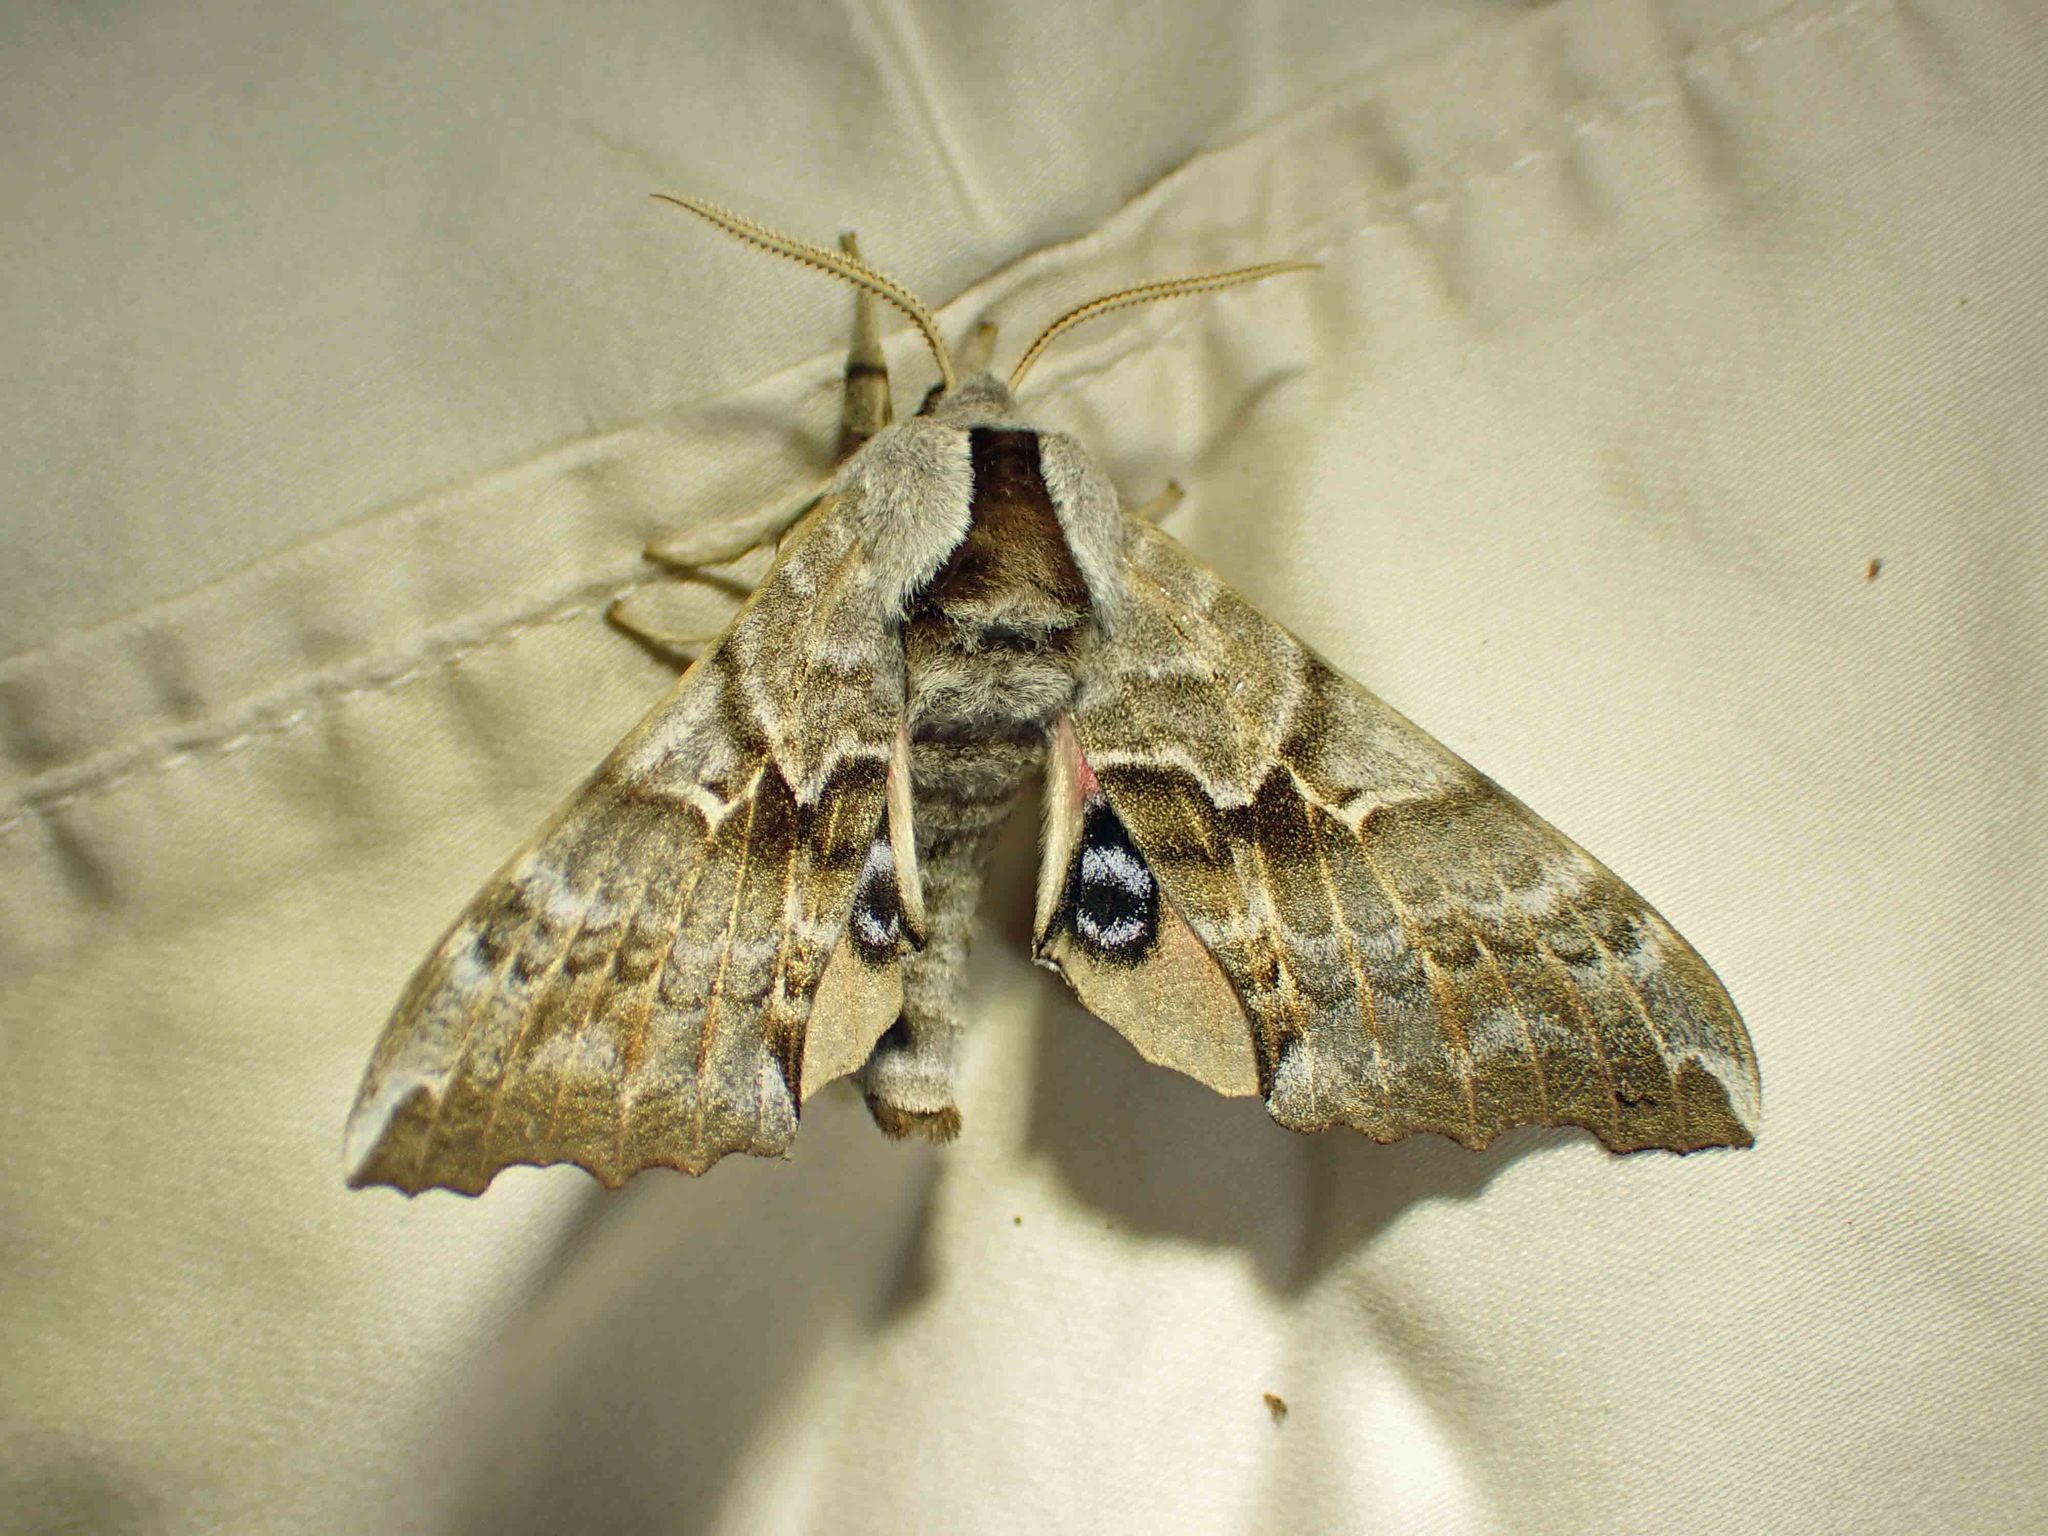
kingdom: Animalia
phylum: Arthropoda
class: Insecta
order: Lepidoptera
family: Sphingidae
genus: Smerinthus
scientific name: Smerinthus cerisyi
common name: Cerisy's sphinx moth
